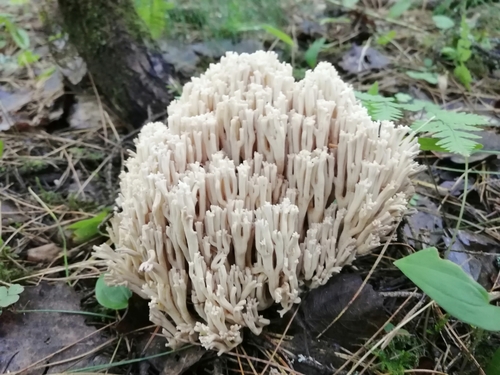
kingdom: Fungi
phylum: Basidiomycota
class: Agaricomycetes
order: Gomphales
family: Gomphaceae
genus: Ramaria
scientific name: Ramaria
